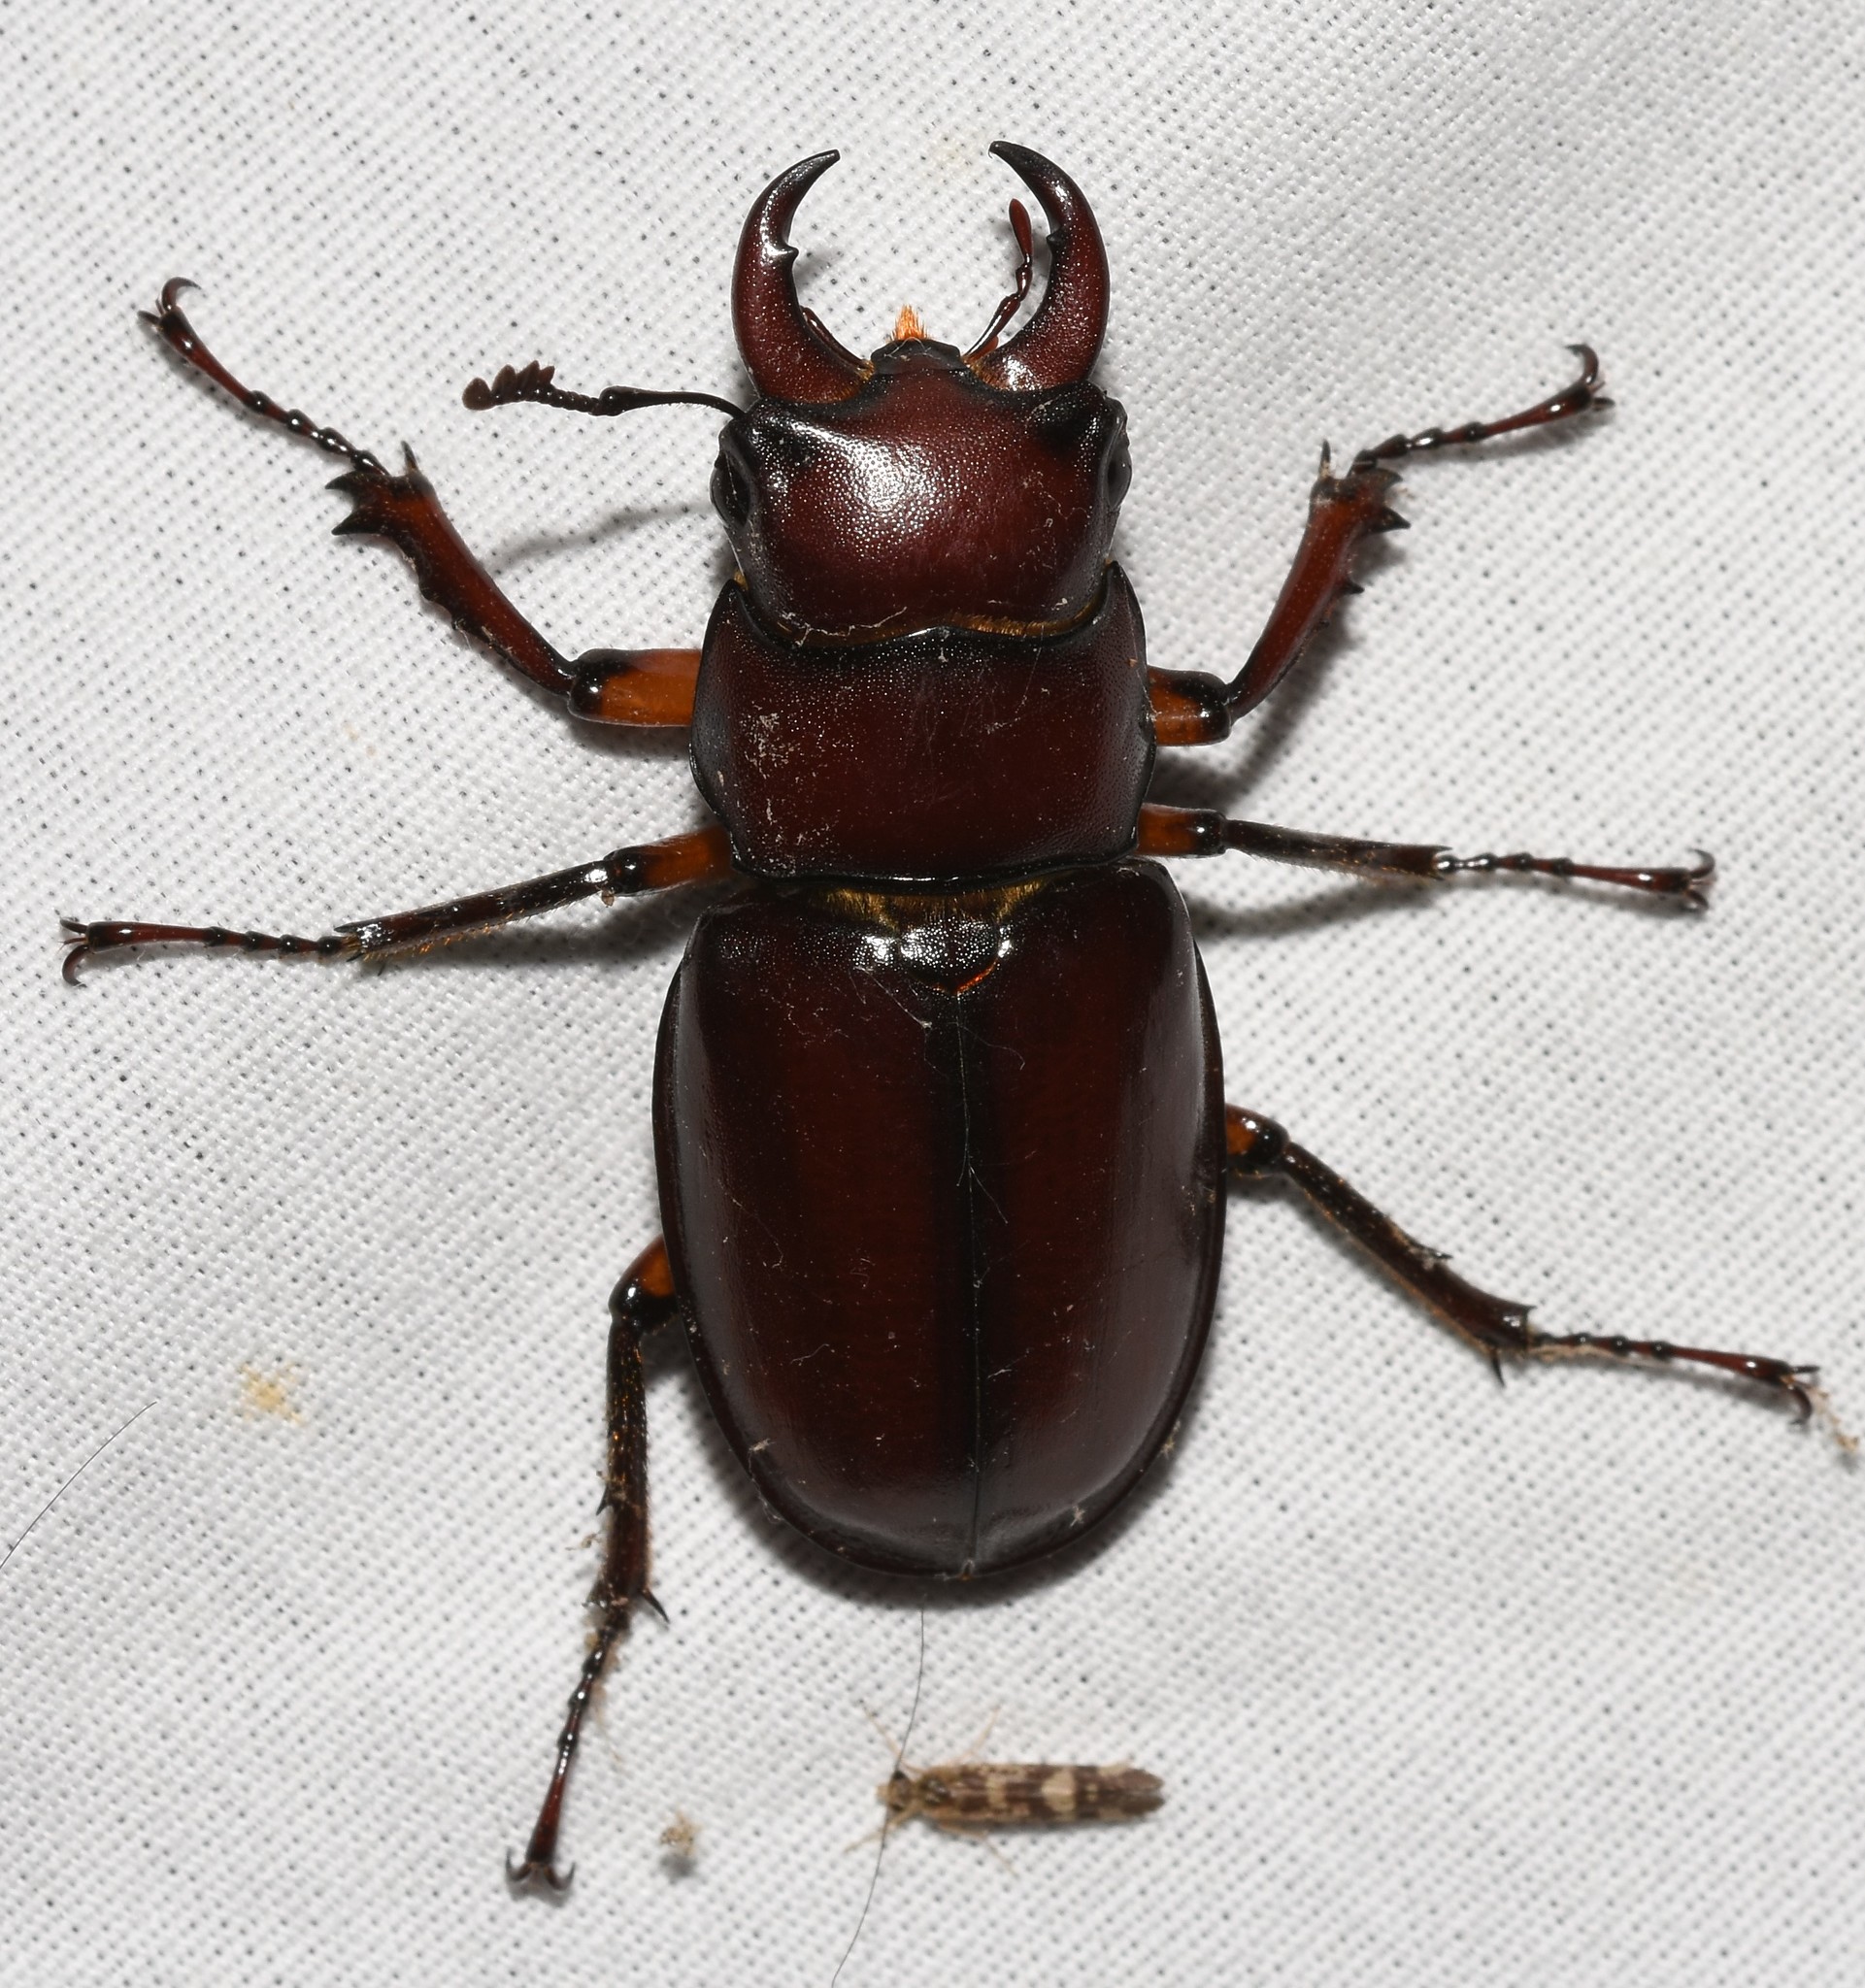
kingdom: Animalia
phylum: Arthropoda
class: Insecta
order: Coleoptera
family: Lucanidae
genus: Lucanus
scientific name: Lucanus capreolus
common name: Stag beetle
